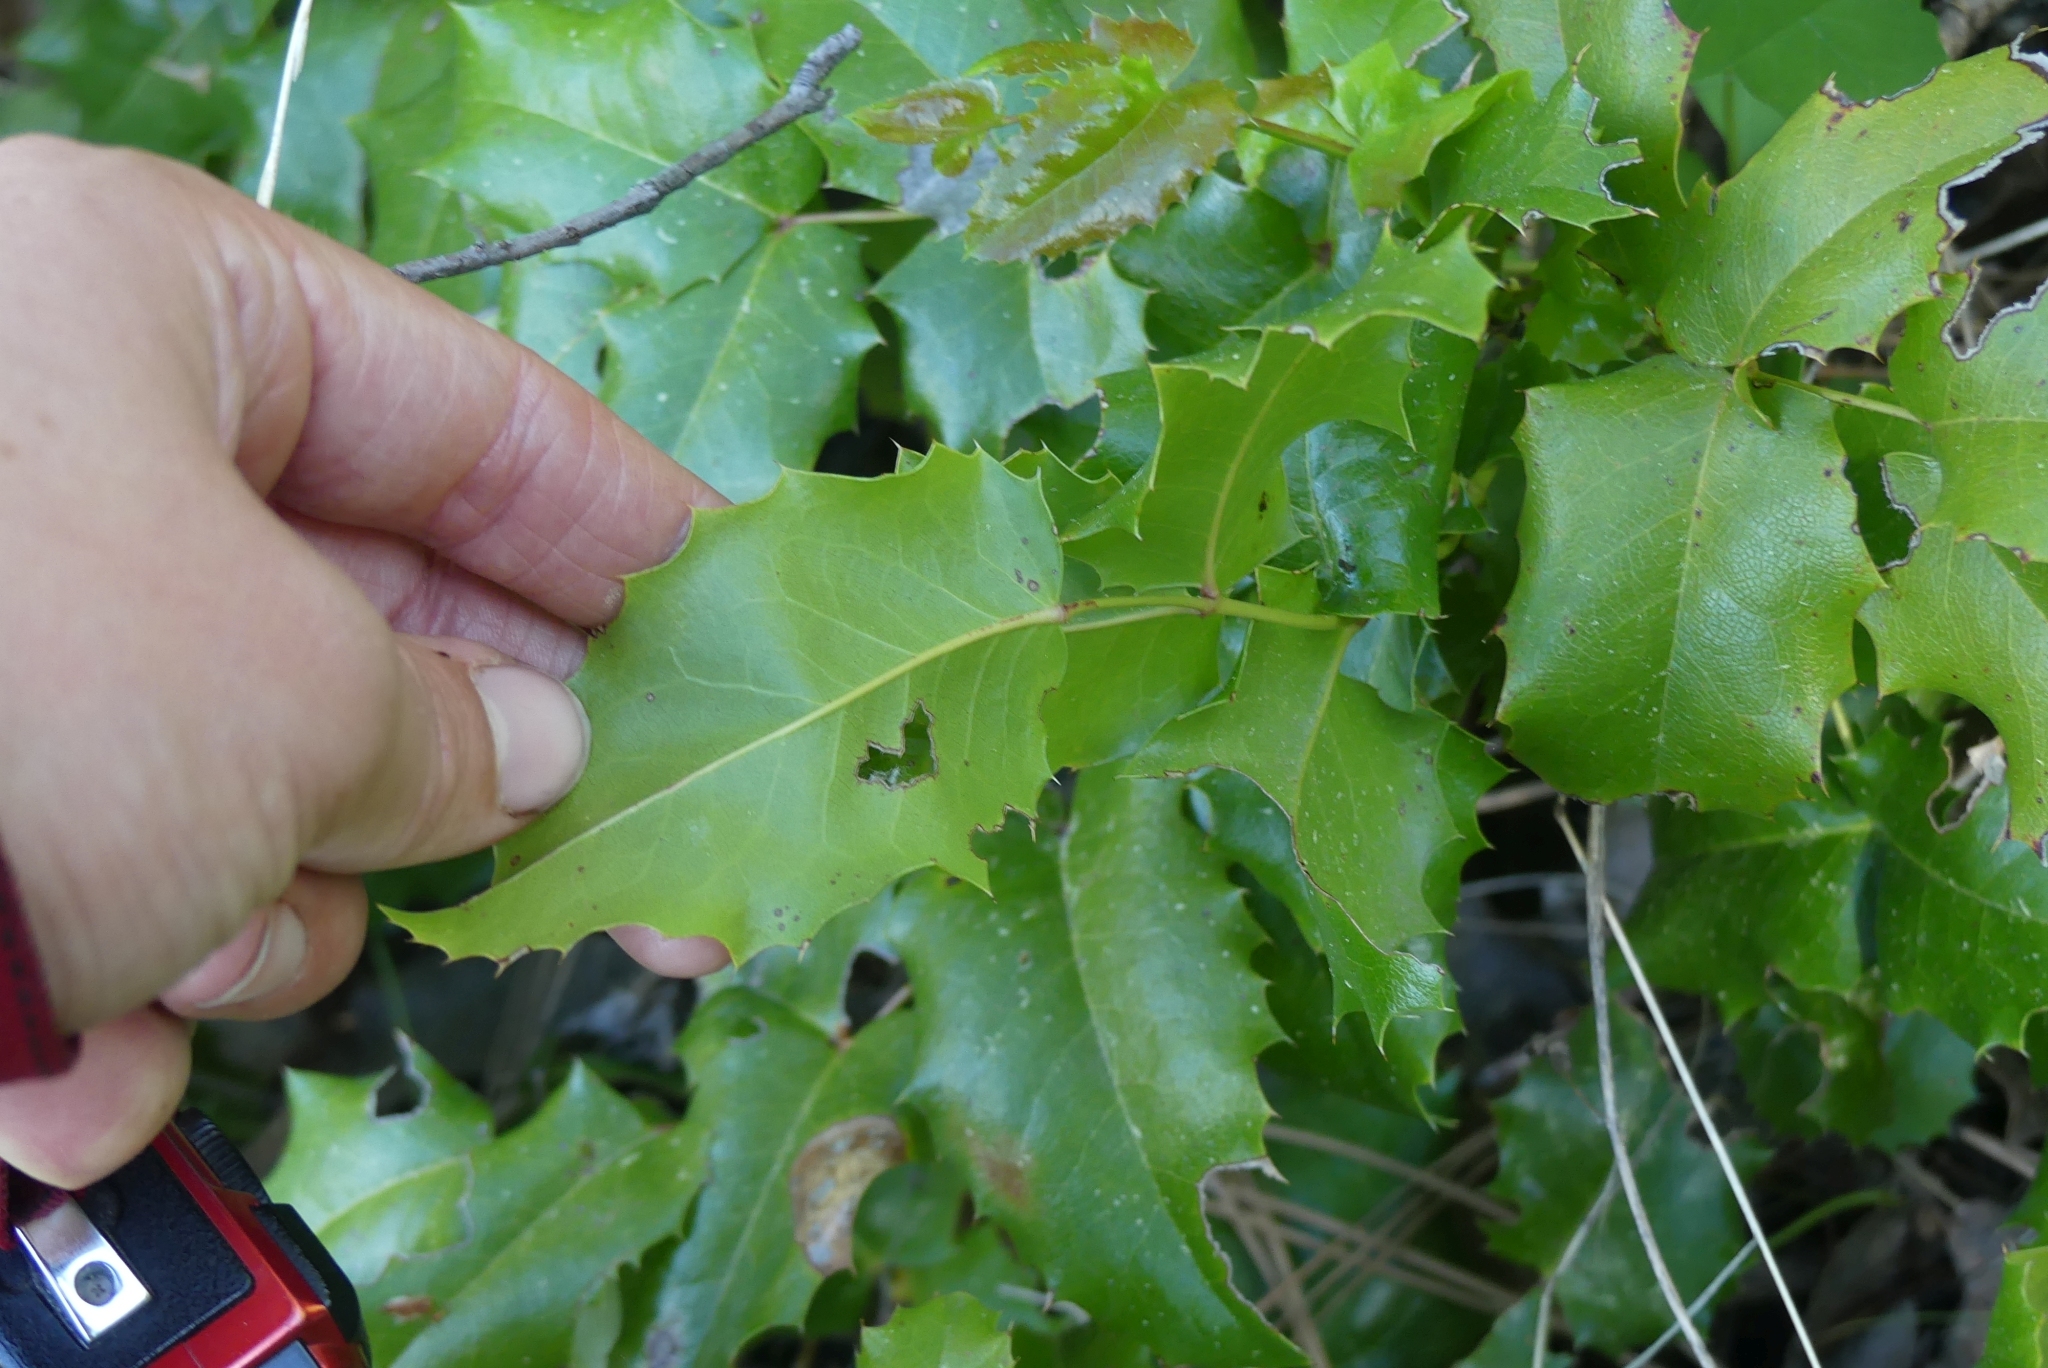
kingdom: Plantae
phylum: Tracheophyta
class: Magnoliopsida
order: Ranunculales
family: Berberidaceae
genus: Mahonia
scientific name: Mahonia aquifolium
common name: Oregon-grape
